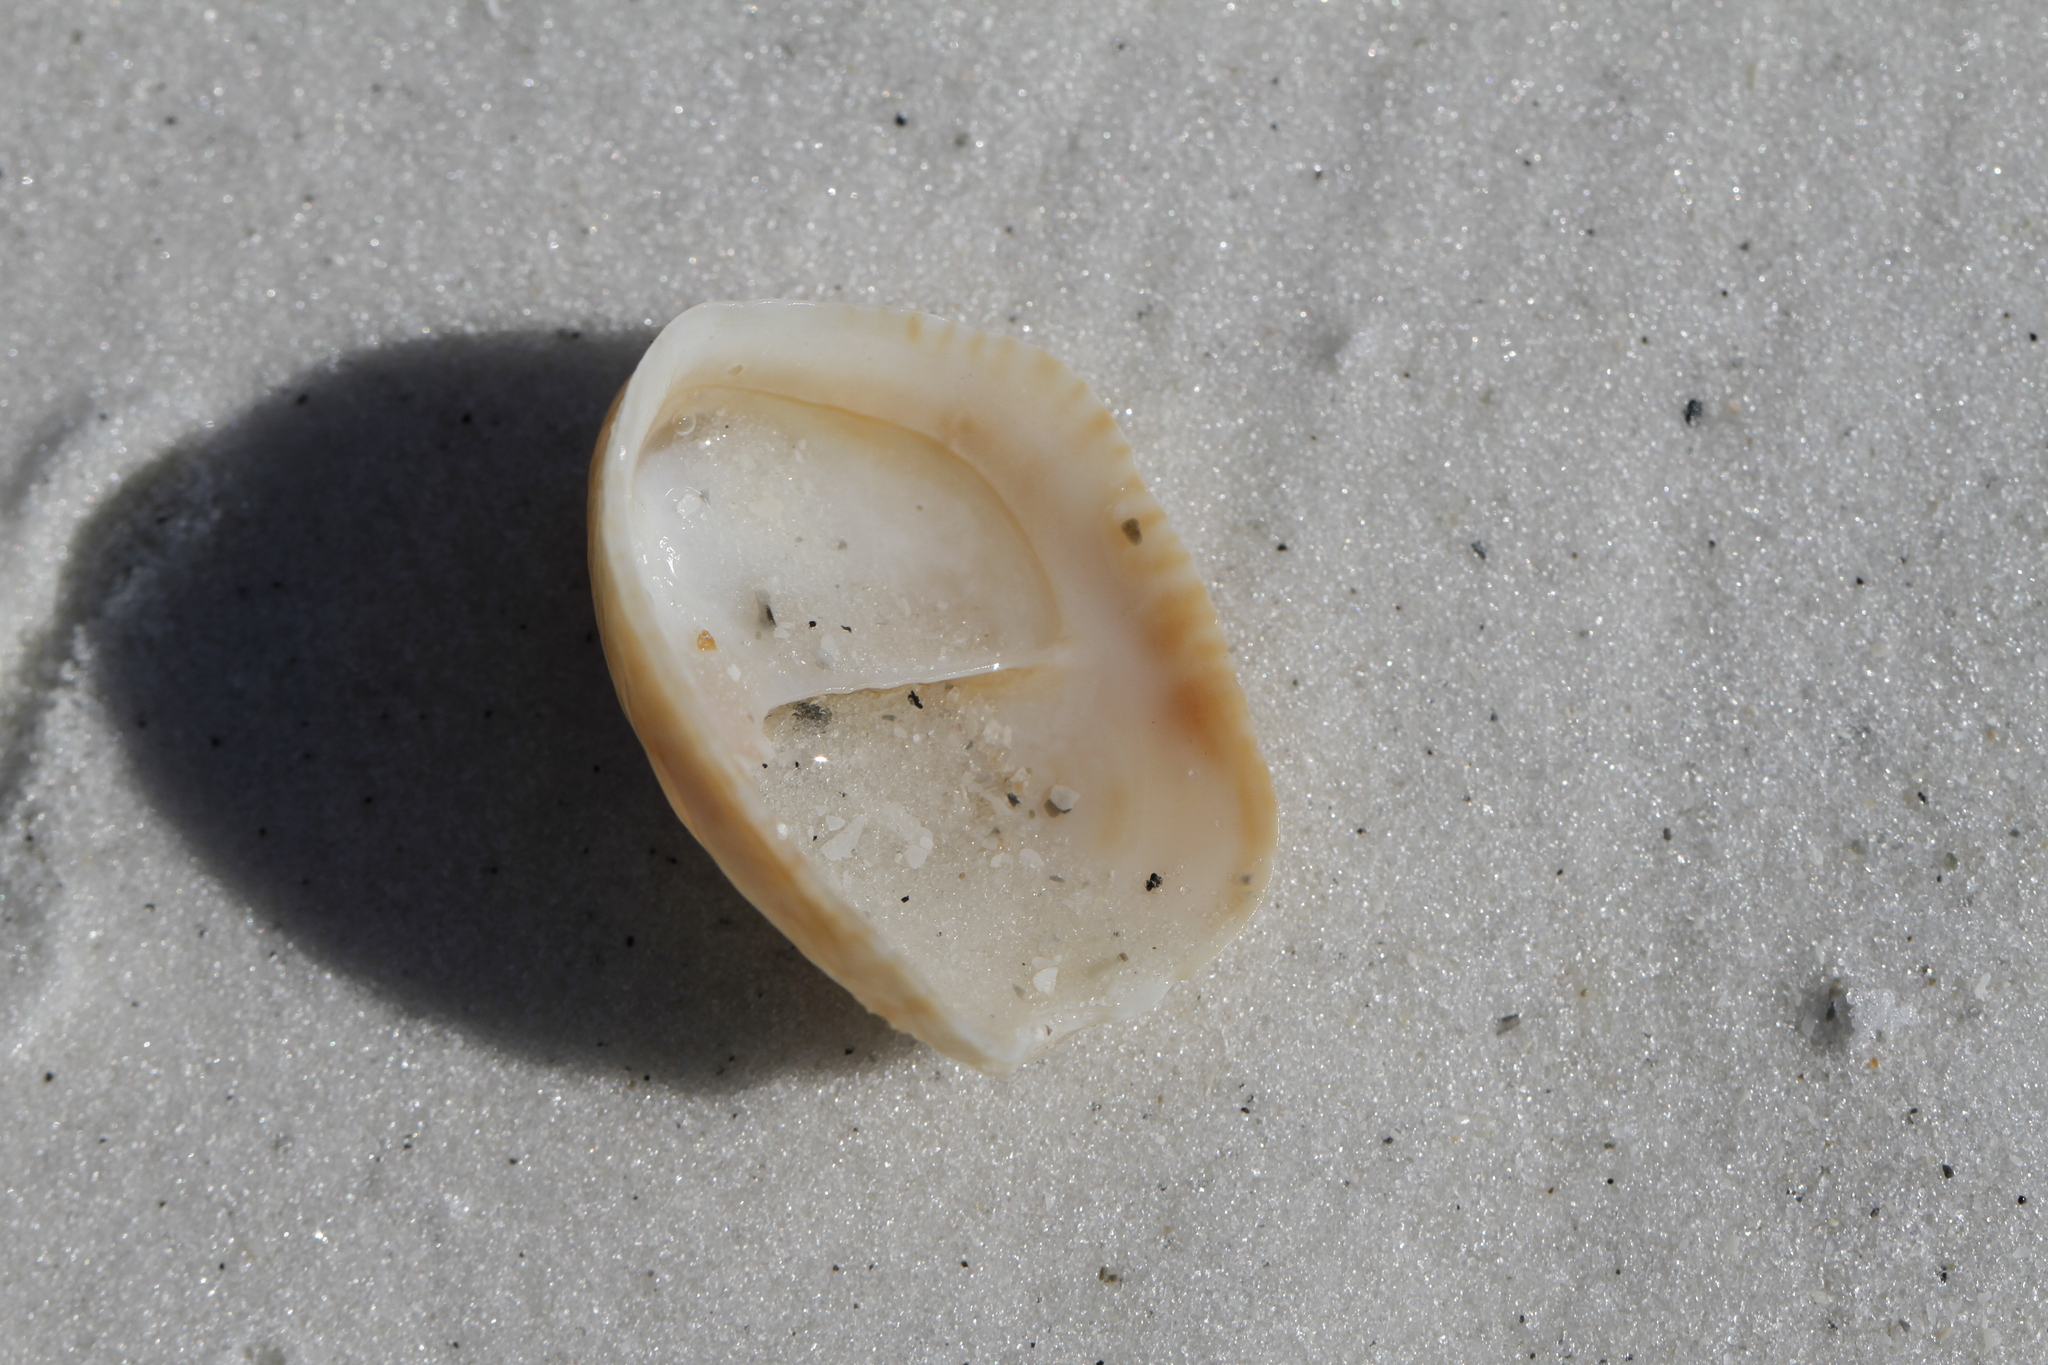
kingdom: Animalia
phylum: Mollusca
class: Gastropoda
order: Littorinimorpha
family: Calyptraeidae
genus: Crepidula
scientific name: Crepidula fornicata
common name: Slipper limpet
